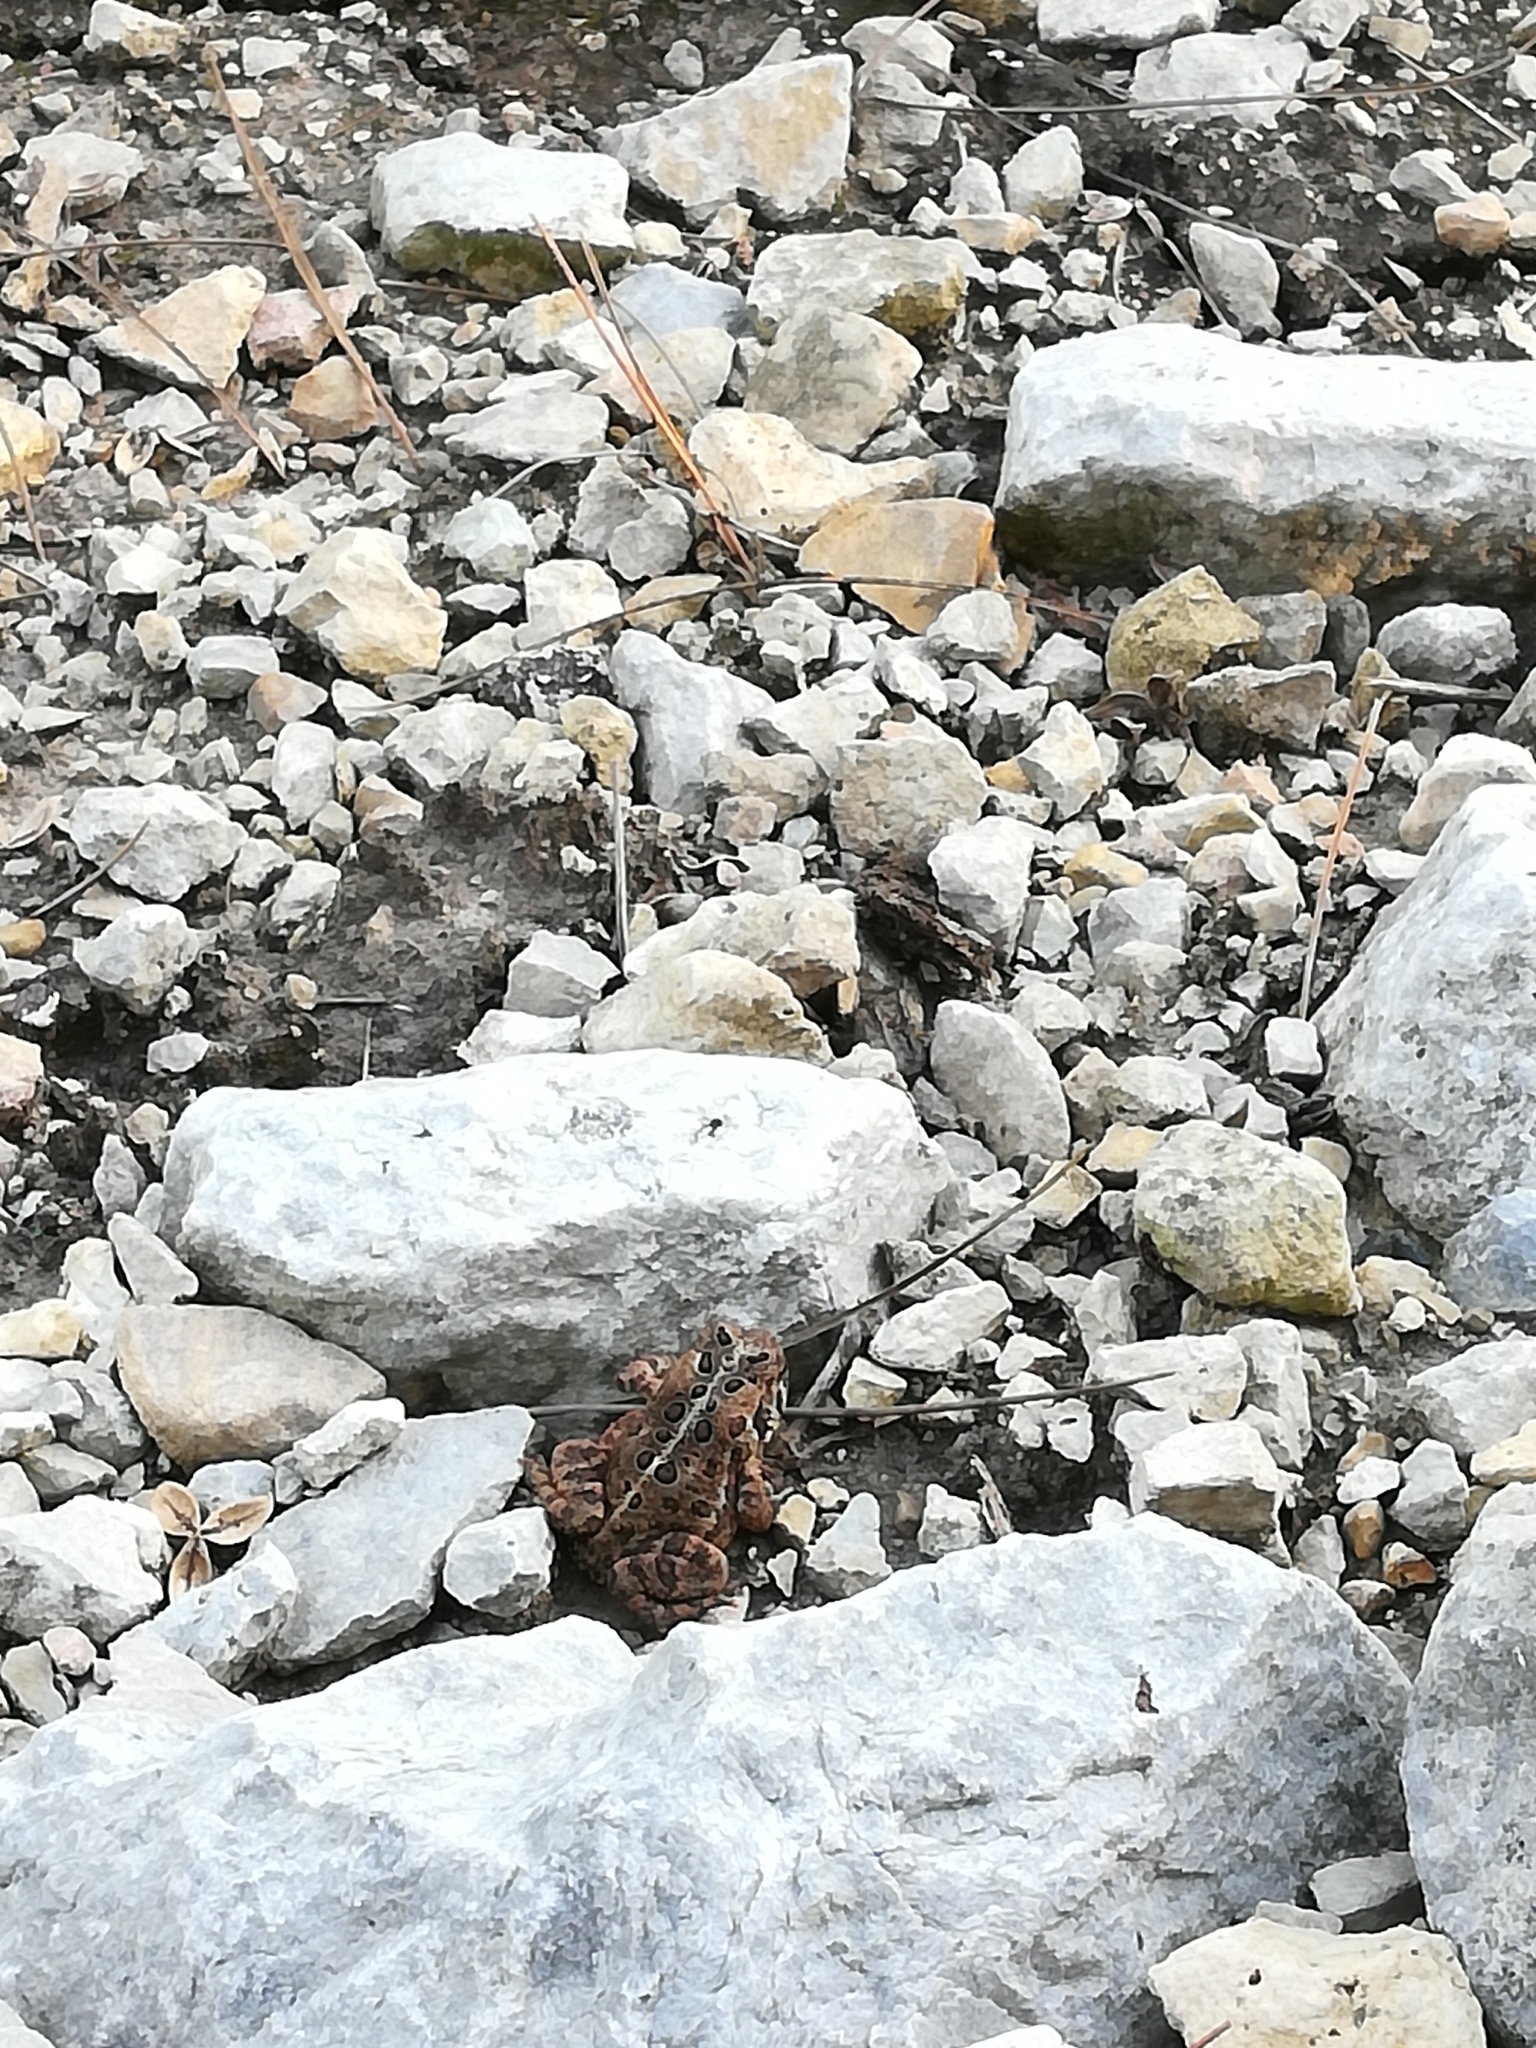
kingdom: Animalia
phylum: Chordata
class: Amphibia
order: Anura
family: Bufonidae
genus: Anaxyrus
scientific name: Anaxyrus americanus
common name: American toad
